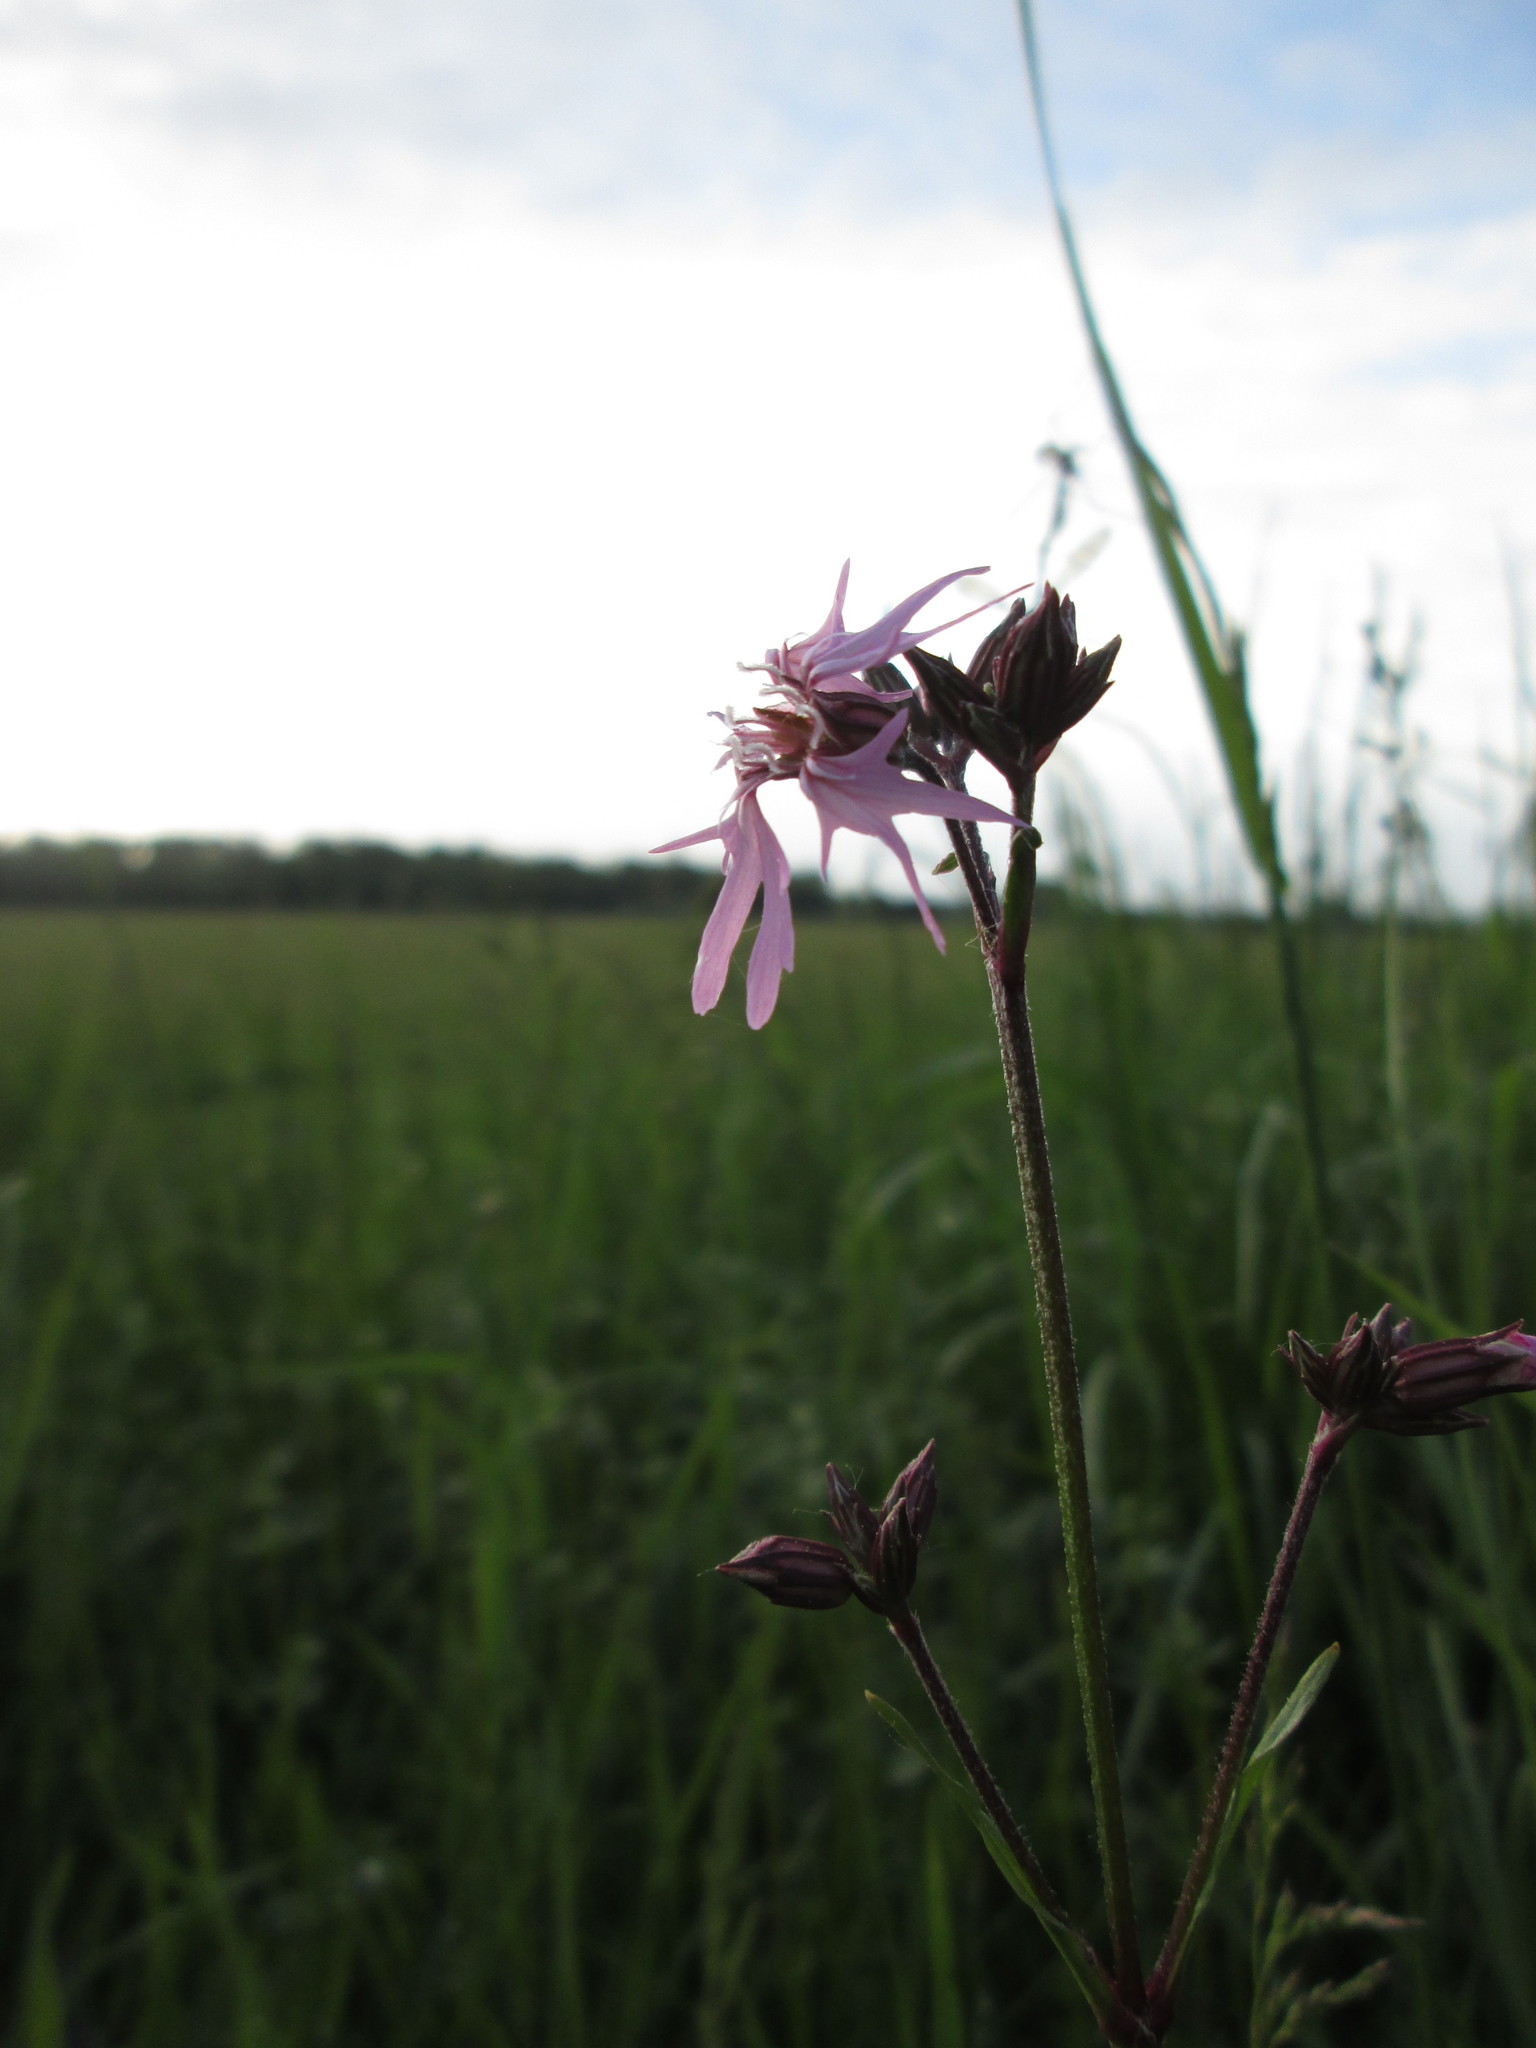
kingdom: Plantae
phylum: Tracheophyta
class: Magnoliopsida
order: Caryophyllales
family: Caryophyllaceae
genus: Silene
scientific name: Silene flos-cuculi
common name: Ragged-robin
